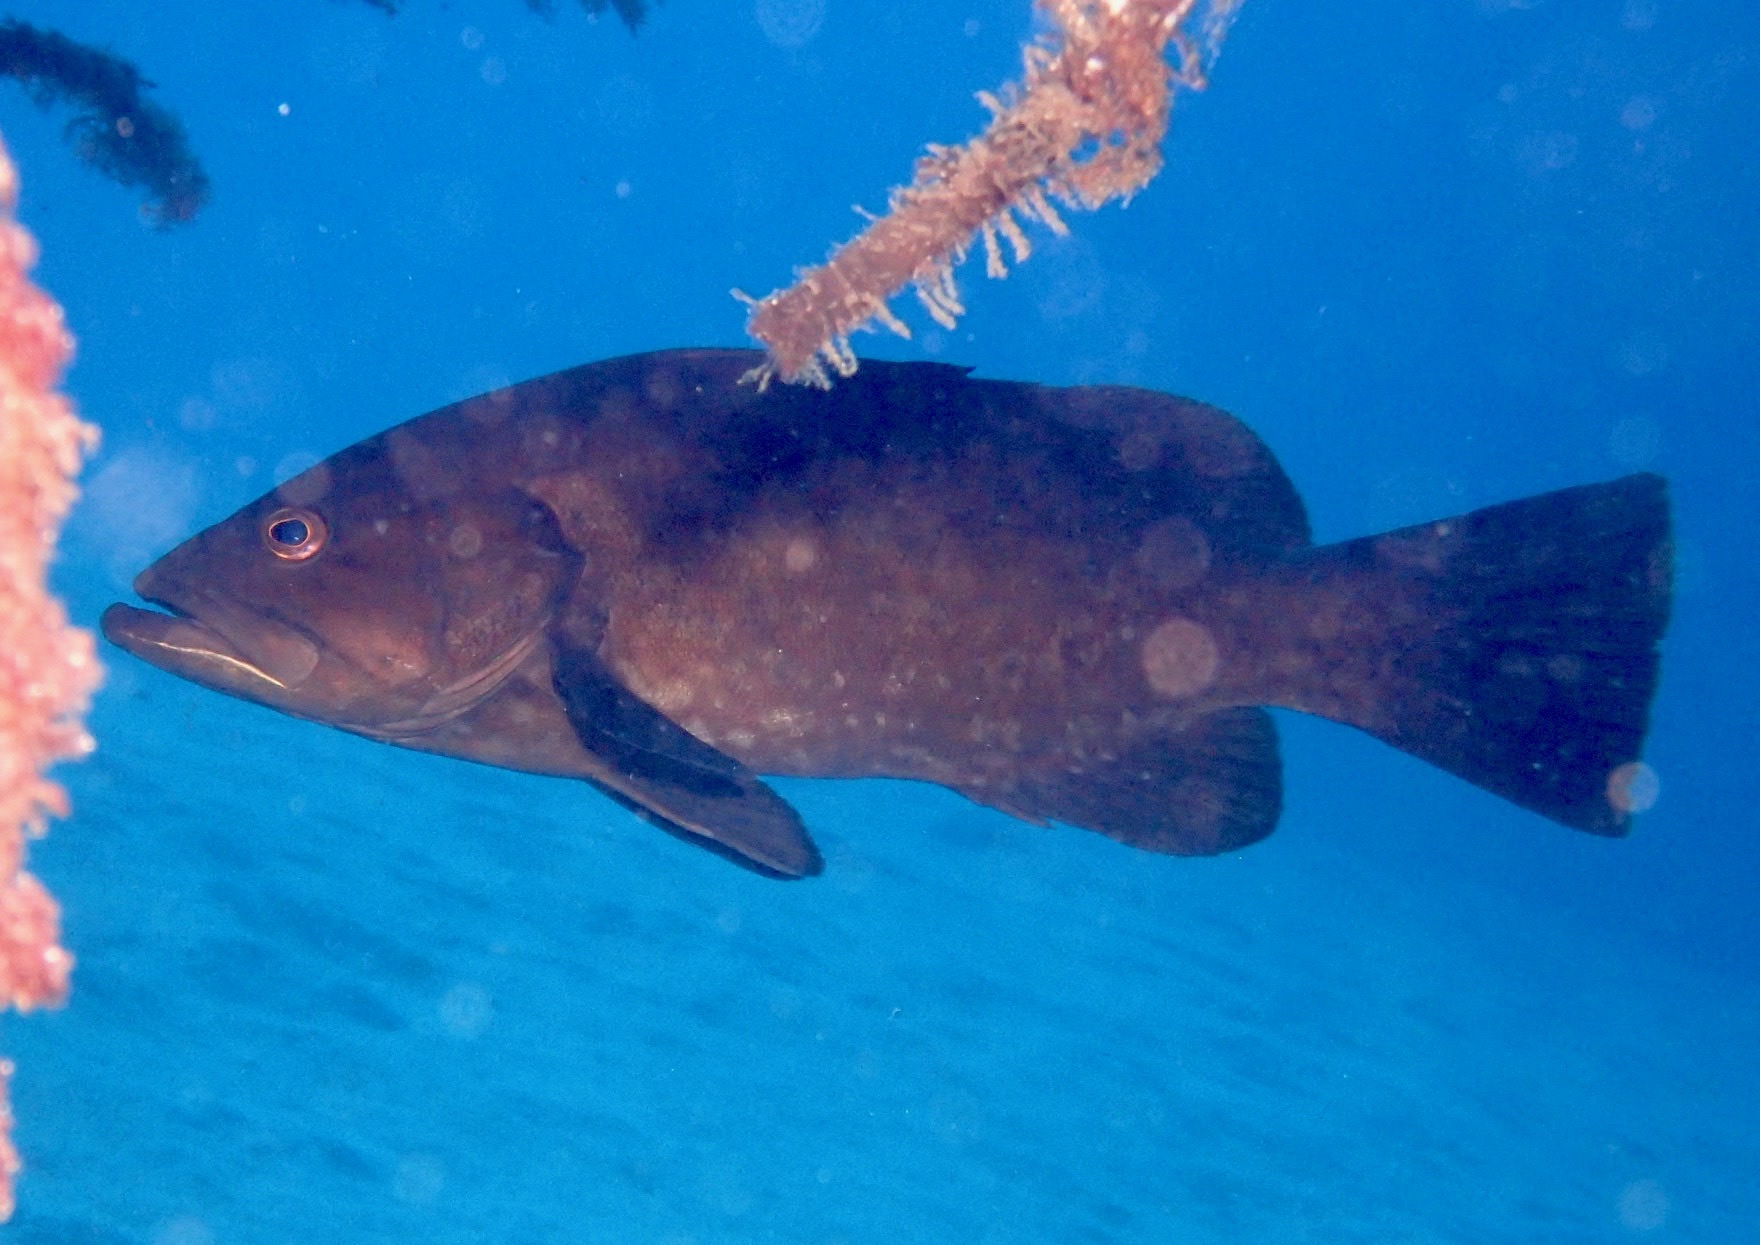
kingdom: Animalia
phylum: Chordata
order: Perciformes
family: Serranidae
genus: Mycteroperca
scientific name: Mycteroperca fusca
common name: Island grouper
